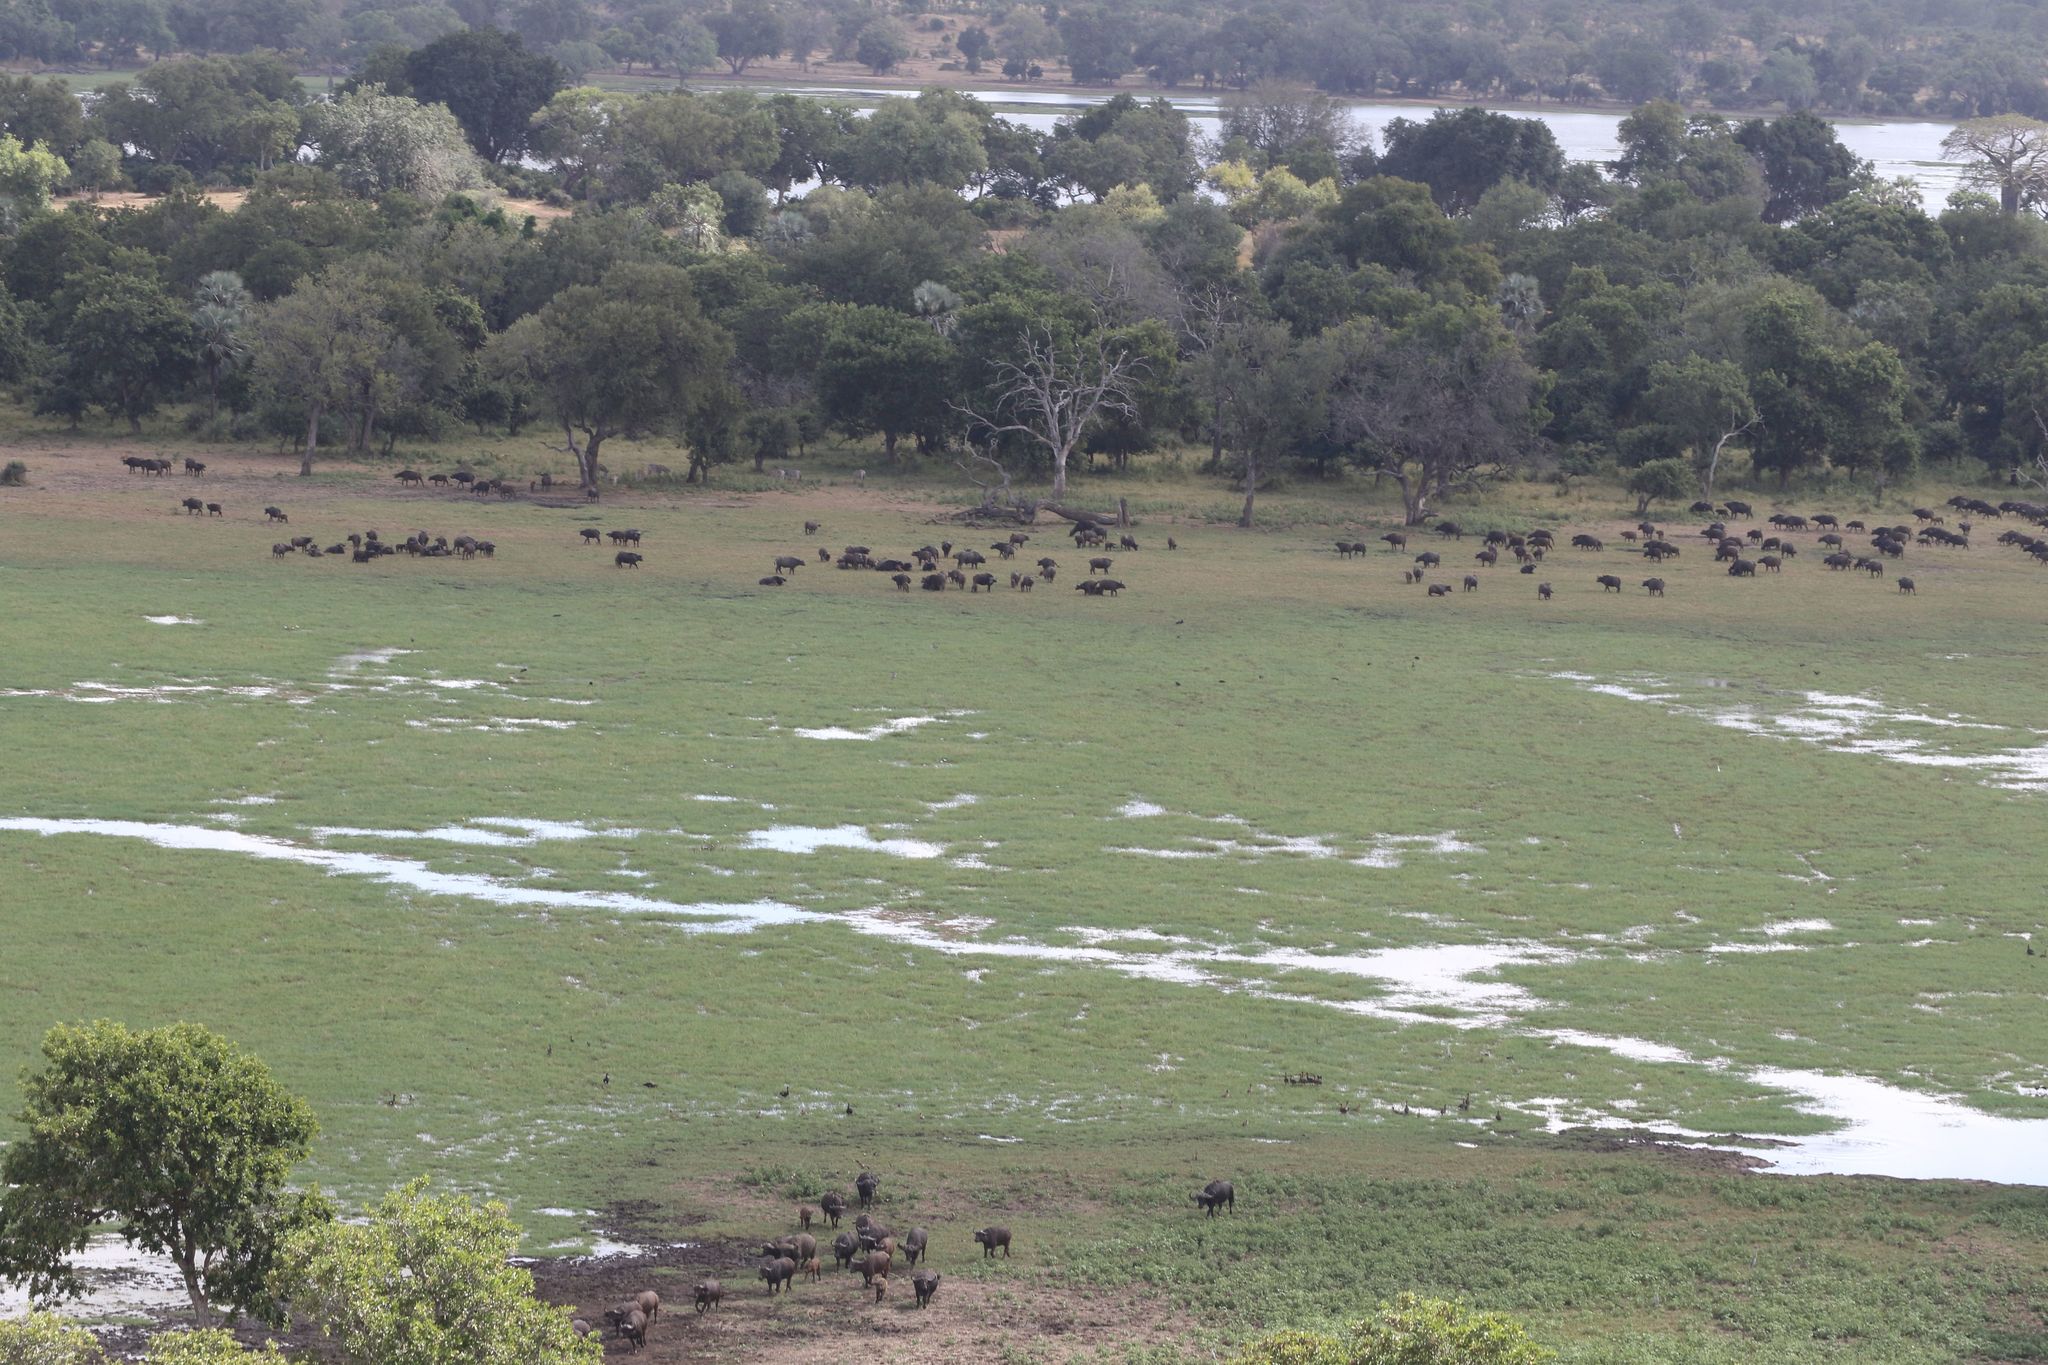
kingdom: Animalia
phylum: Chordata
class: Mammalia
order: Artiodactyla
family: Bovidae
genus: Syncerus
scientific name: Syncerus caffer
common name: African buffalo
